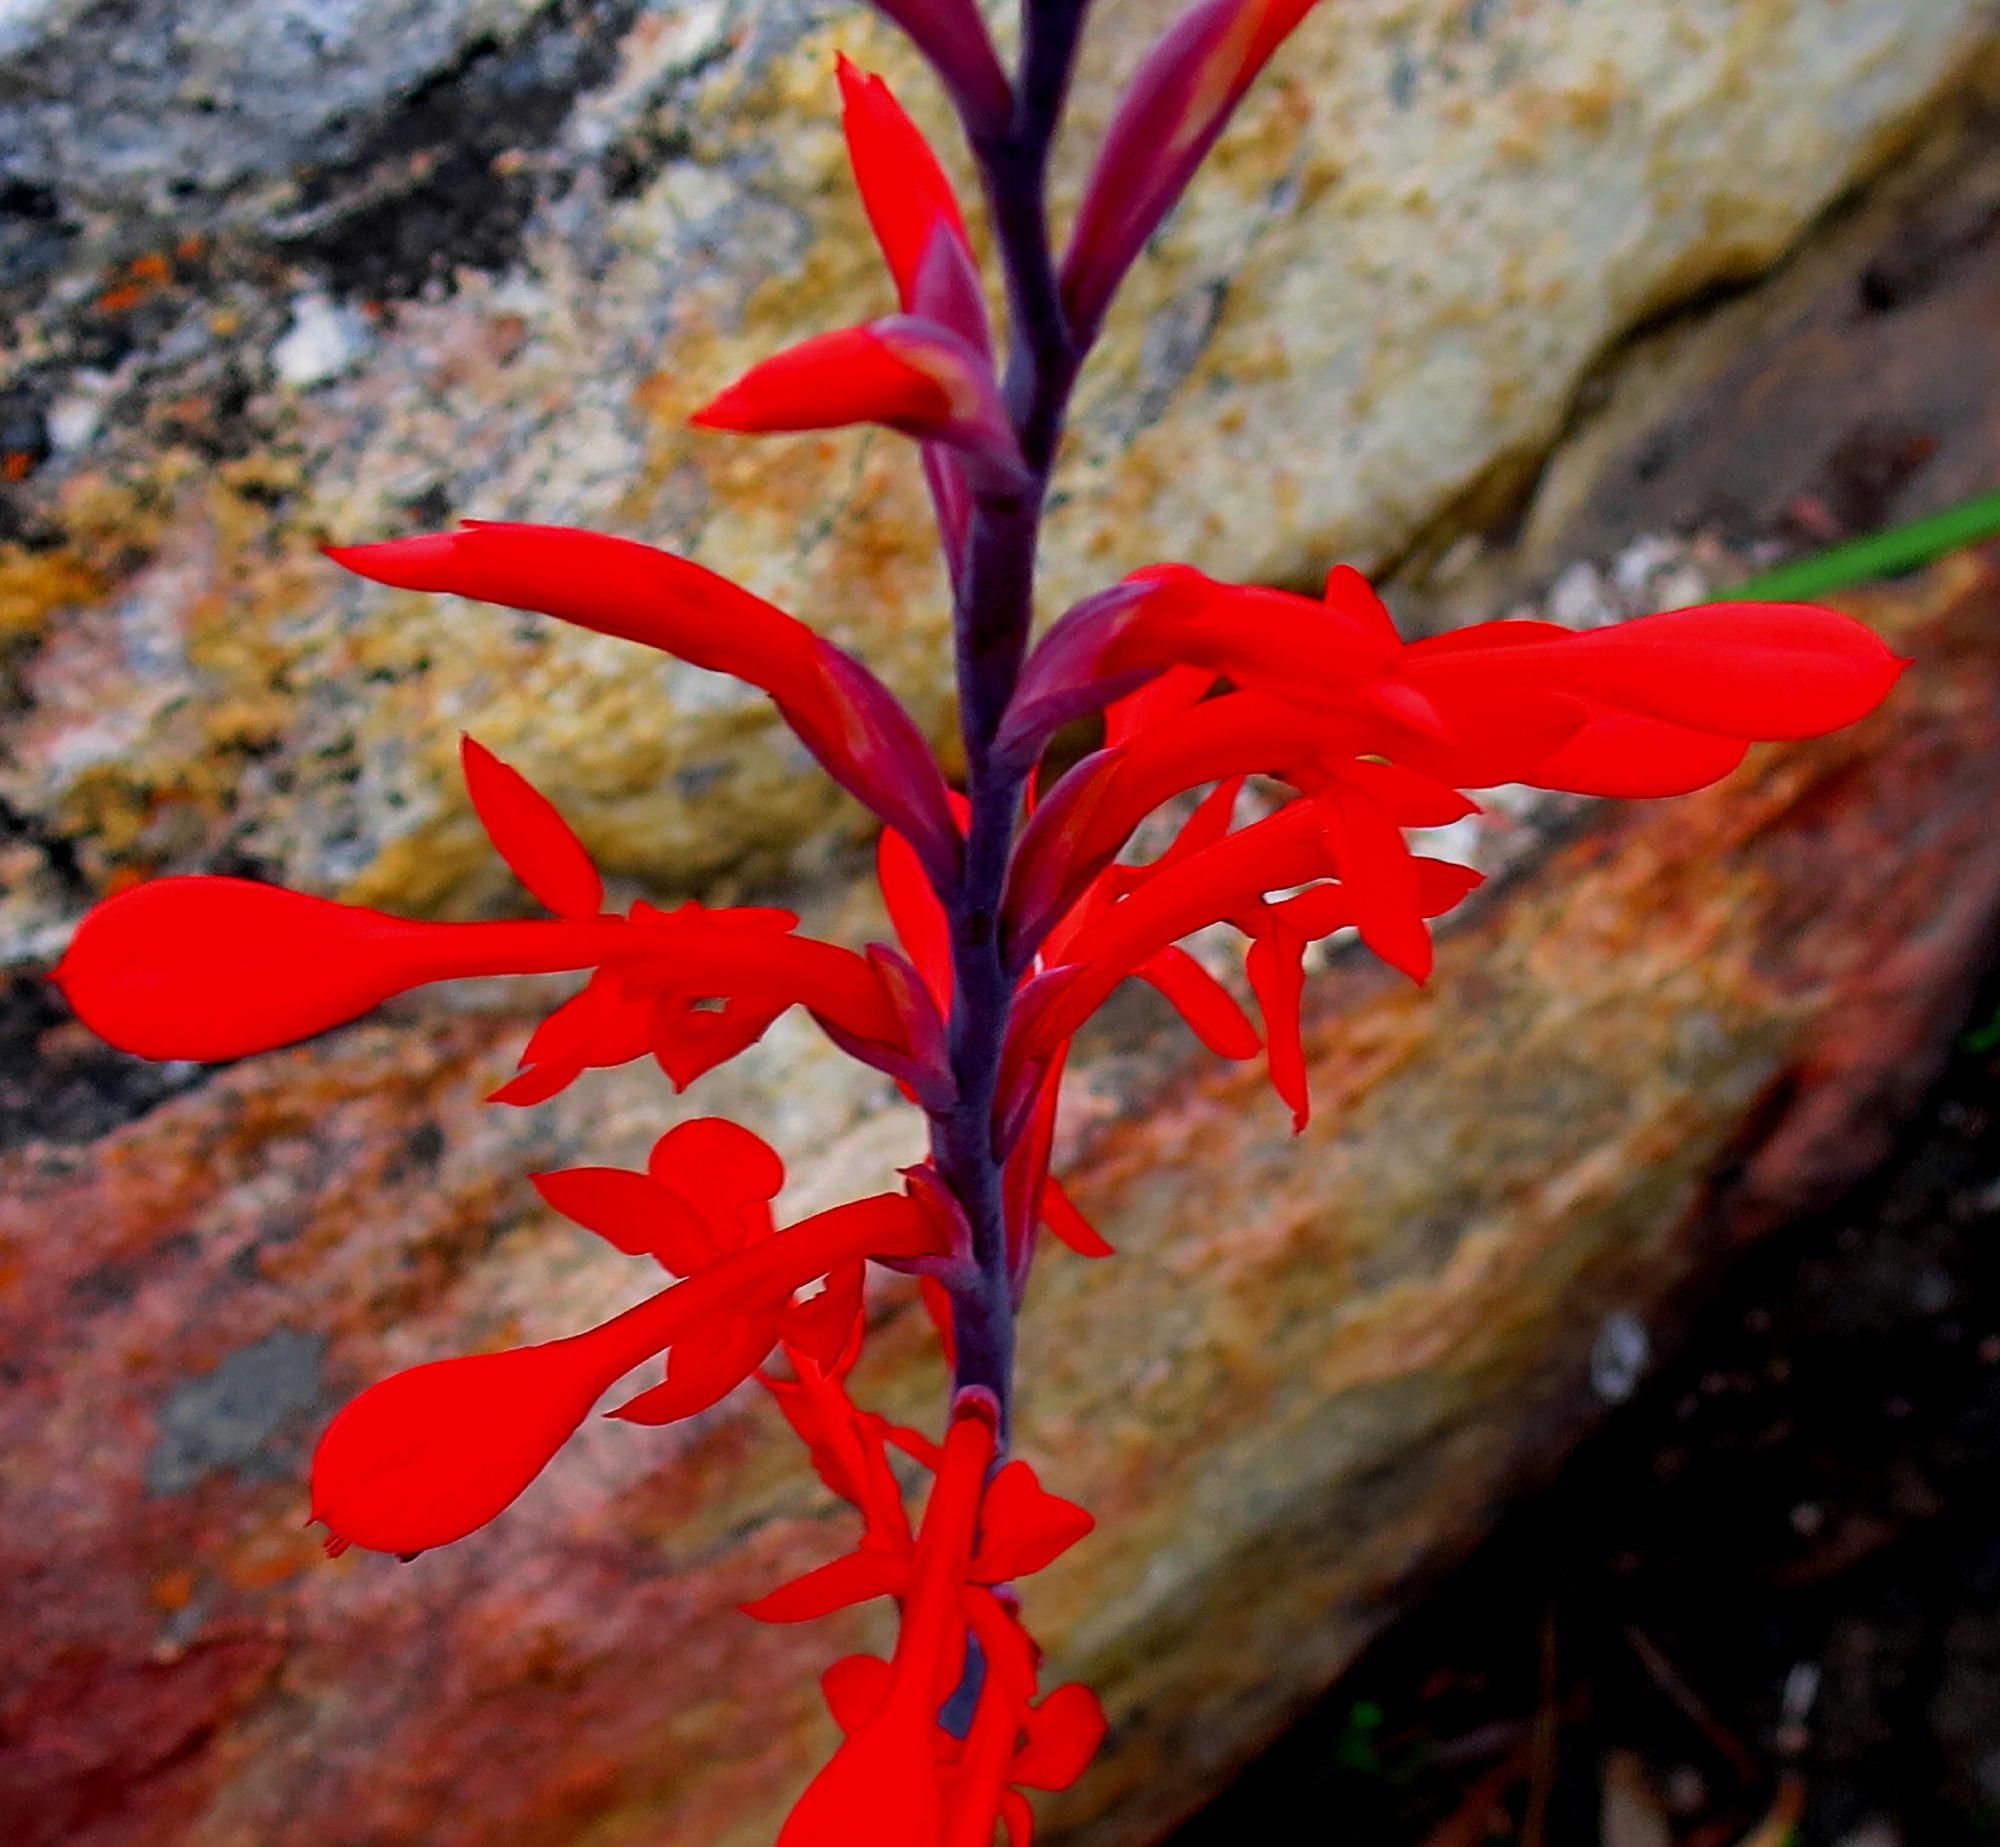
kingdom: Plantae
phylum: Tracheophyta
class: Liliopsida
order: Asparagales
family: Iridaceae
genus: Tritoniopsis
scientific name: Tritoniopsis caffra
